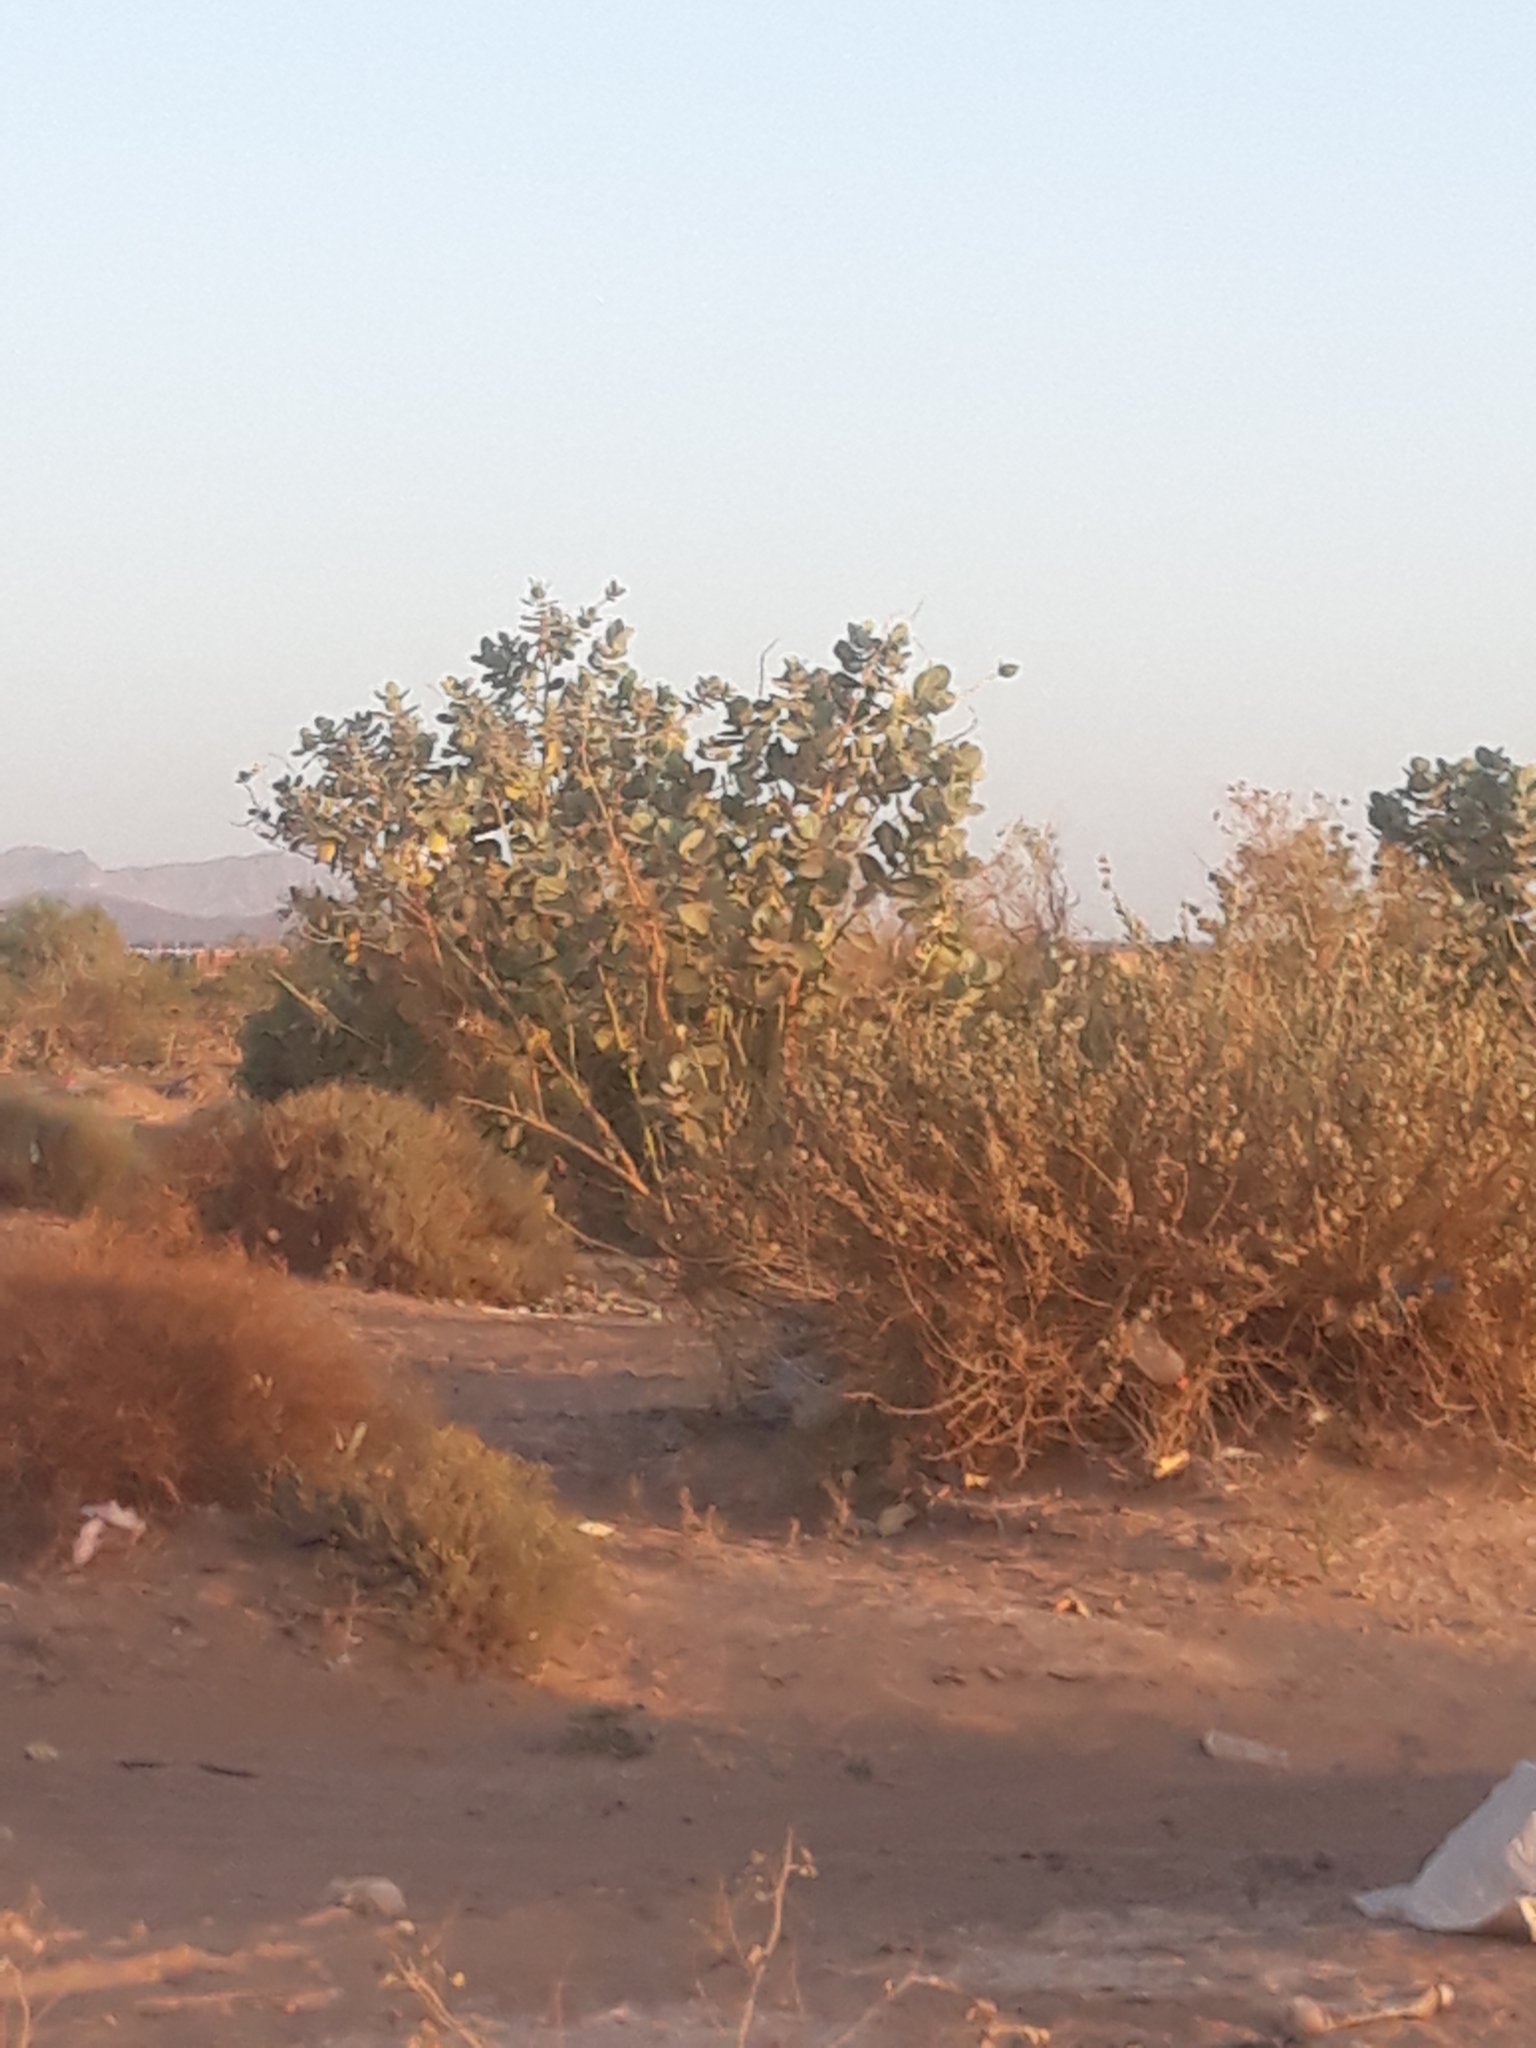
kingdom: Plantae
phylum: Tracheophyta
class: Magnoliopsida
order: Gentianales
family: Apocynaceae
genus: Calotropis
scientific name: Calotropis procera
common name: Roostertree
